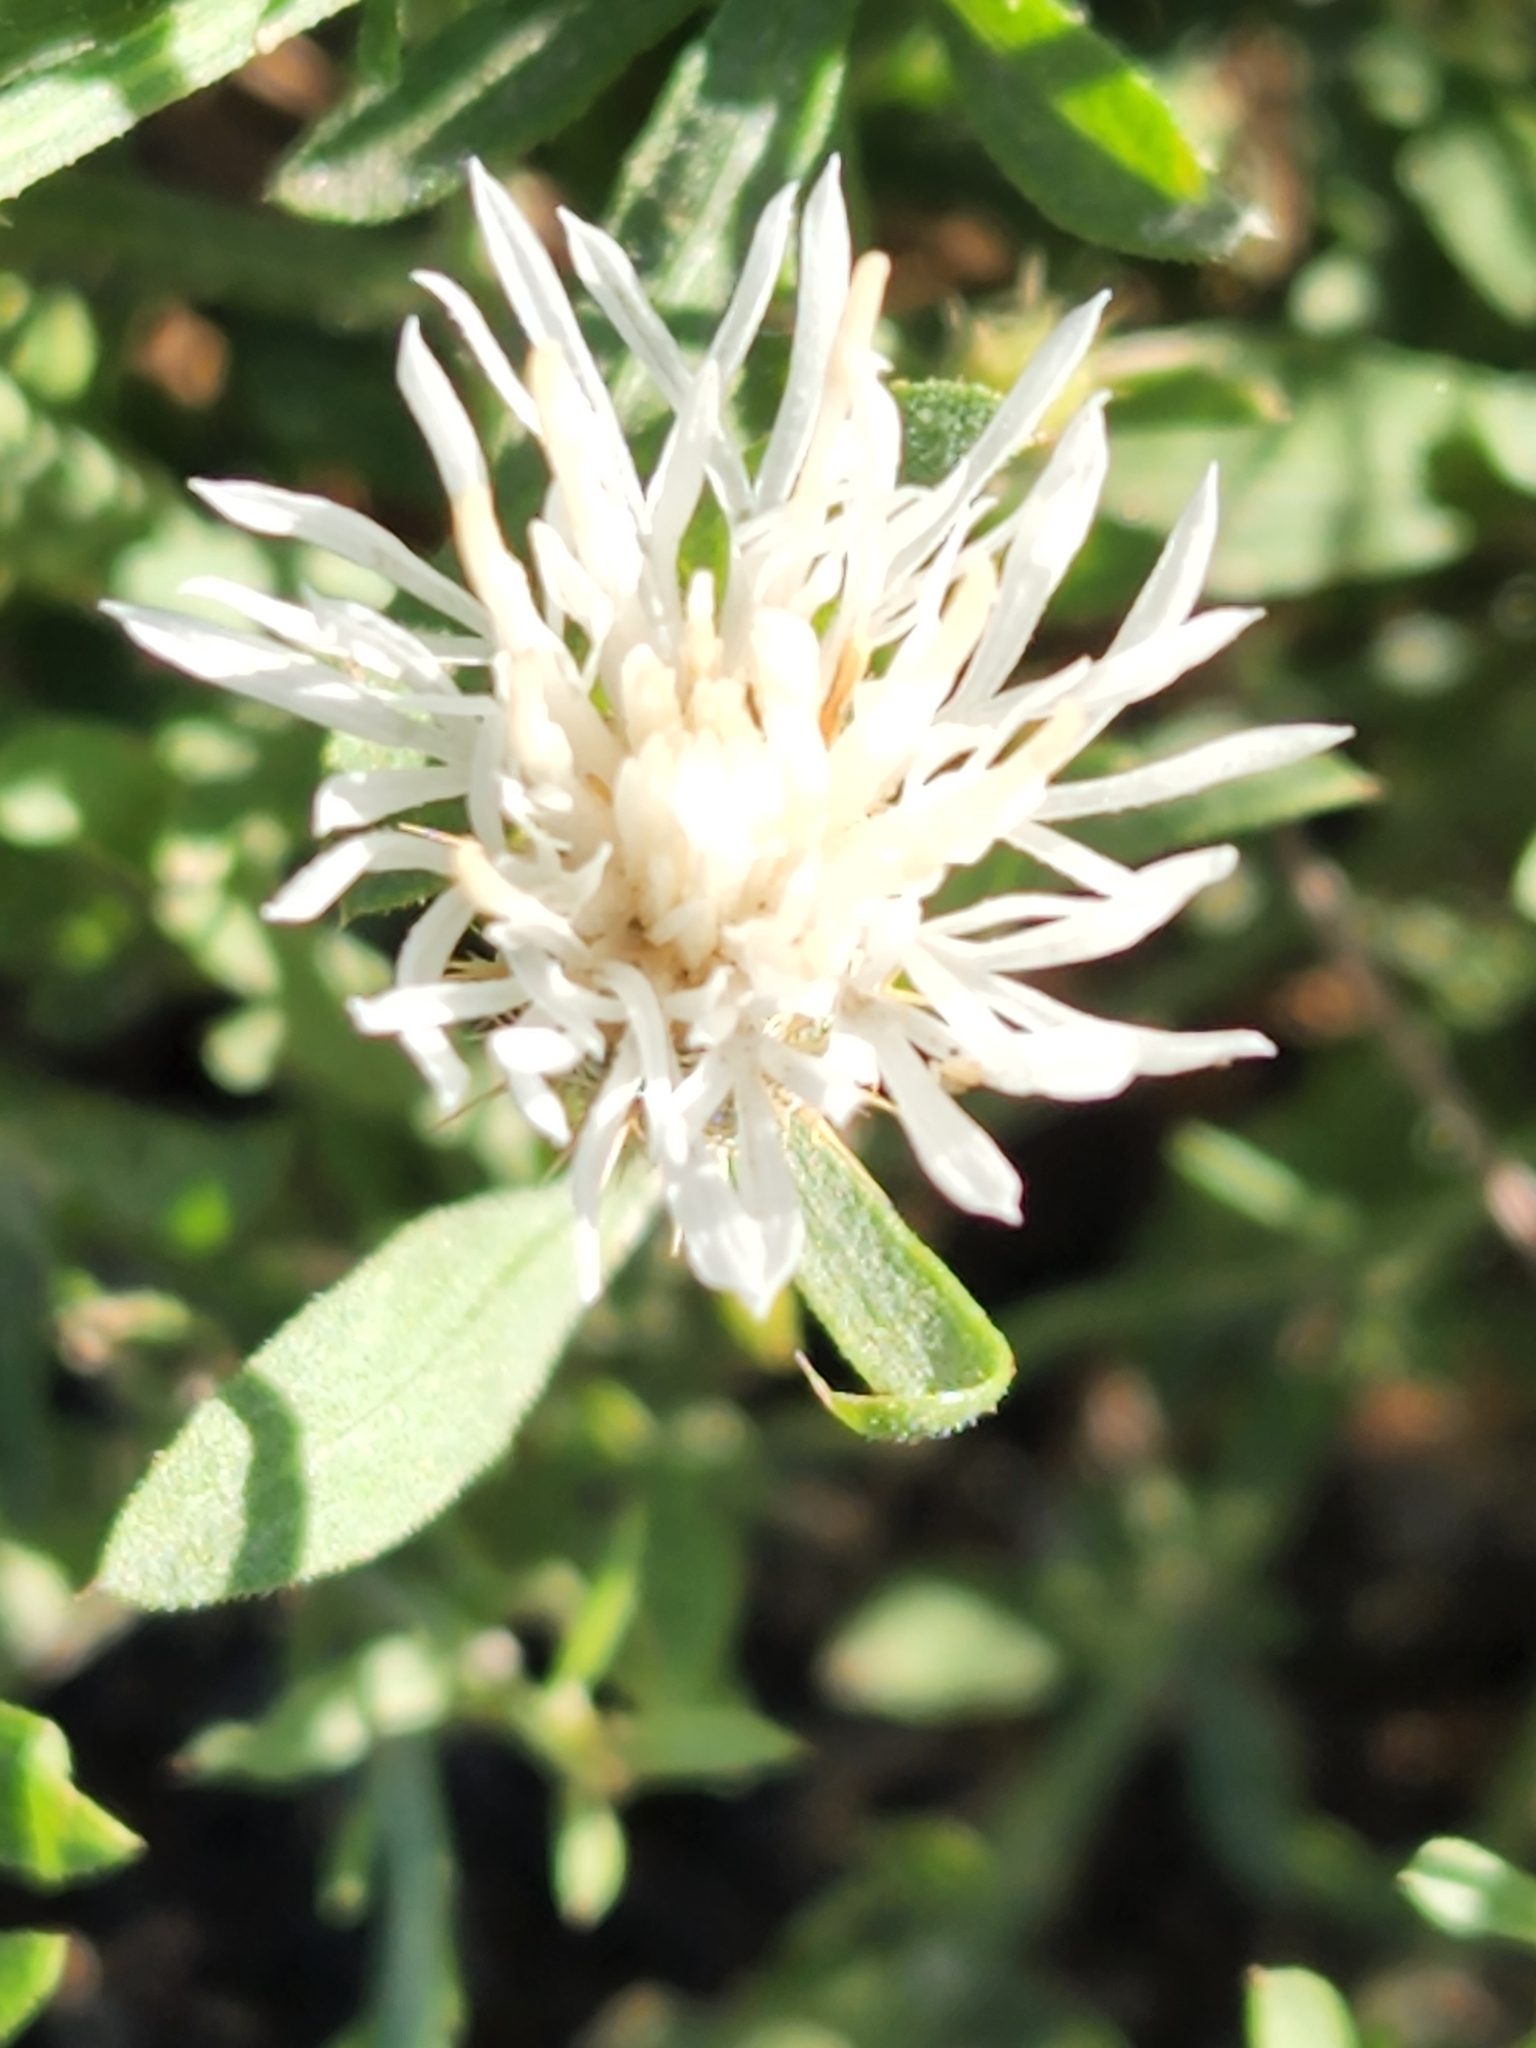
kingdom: Plantae
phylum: Tracheophyta
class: Magnoliopsida
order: Asterales
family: Asteraceae
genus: Centaurea
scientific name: Centaurea diffusa
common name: Diffuse knapweed
